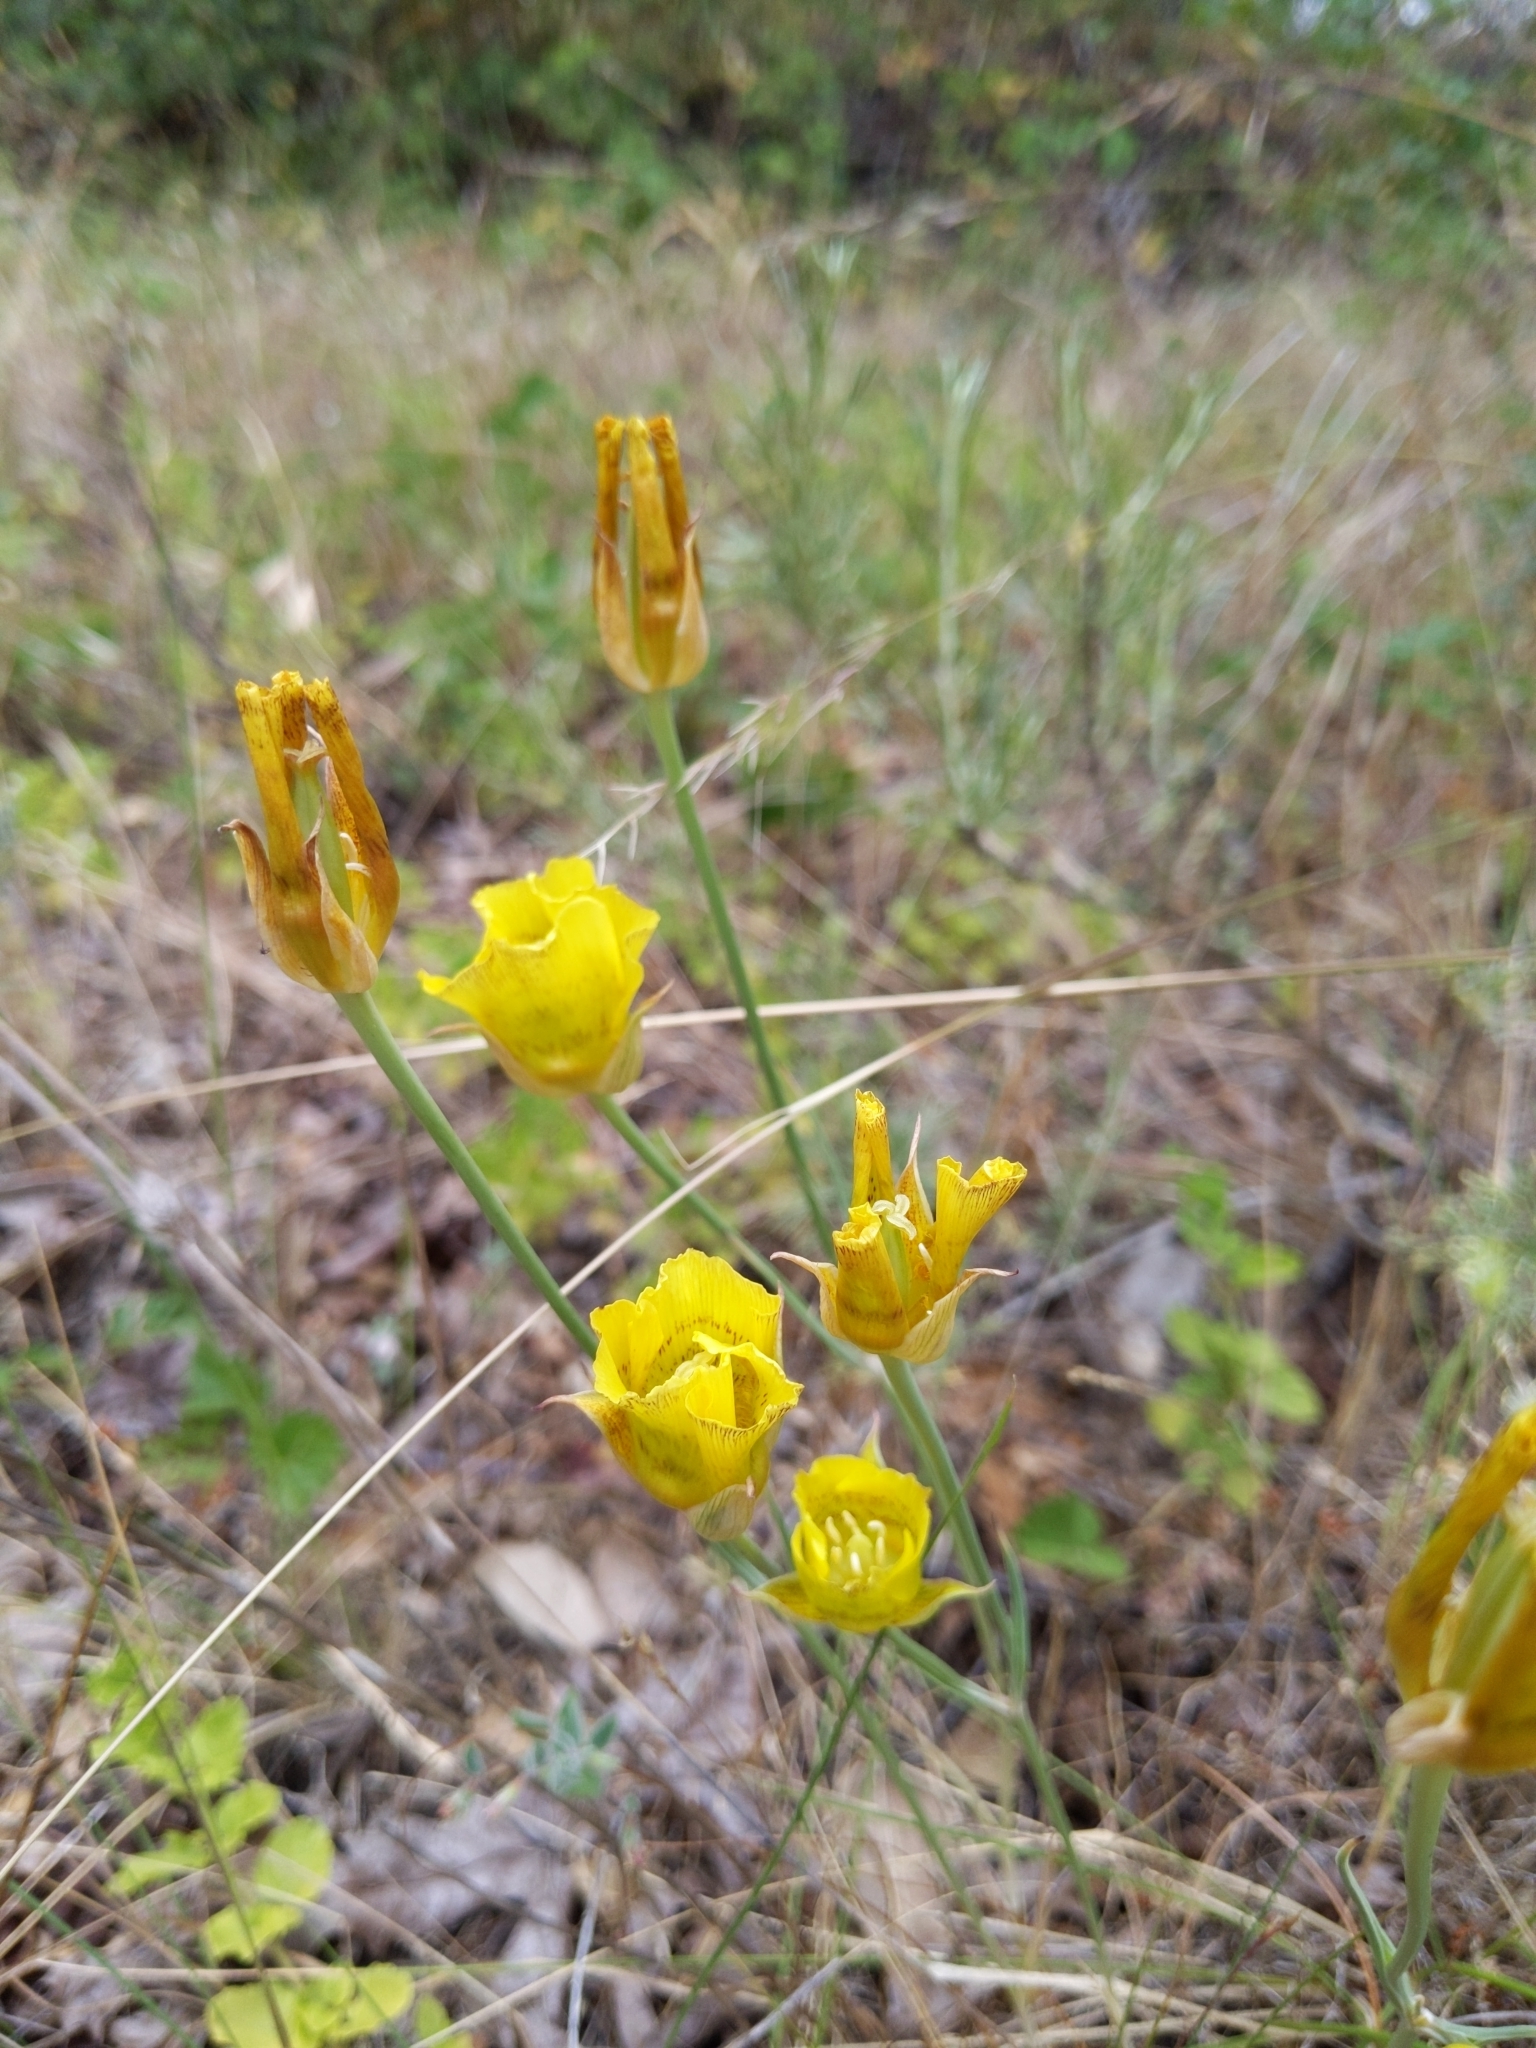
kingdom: Plantae
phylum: Tracheophyta
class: Liliopsida
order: Liliales
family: Liliaceae
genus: Calochortus
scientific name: Calochortus luteus
